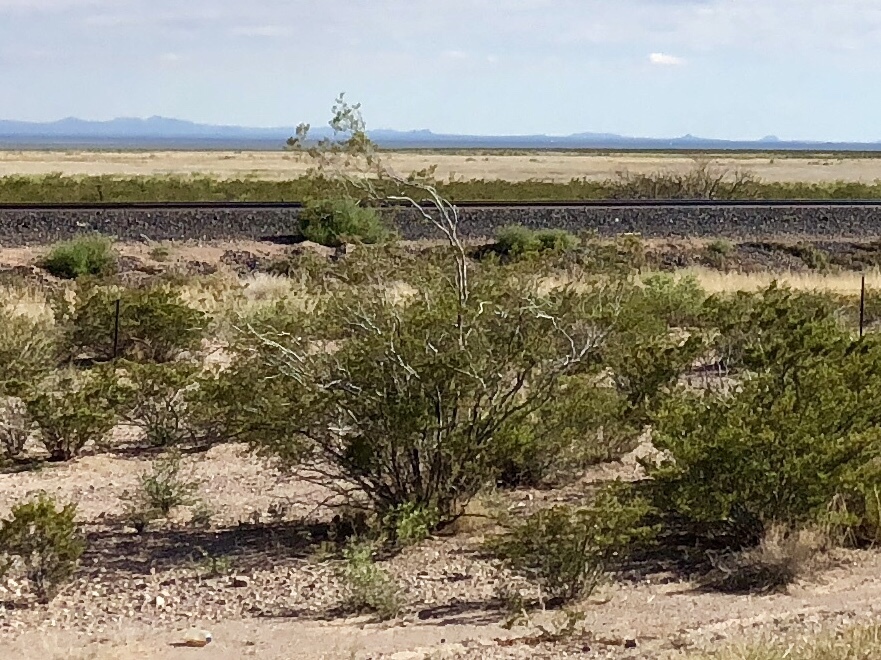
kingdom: Plantae
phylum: Tracheophyta
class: Magnoliopsida
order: Zygophyllales
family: Zygophyllaceae
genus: Larrea
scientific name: Larrea tridentata
